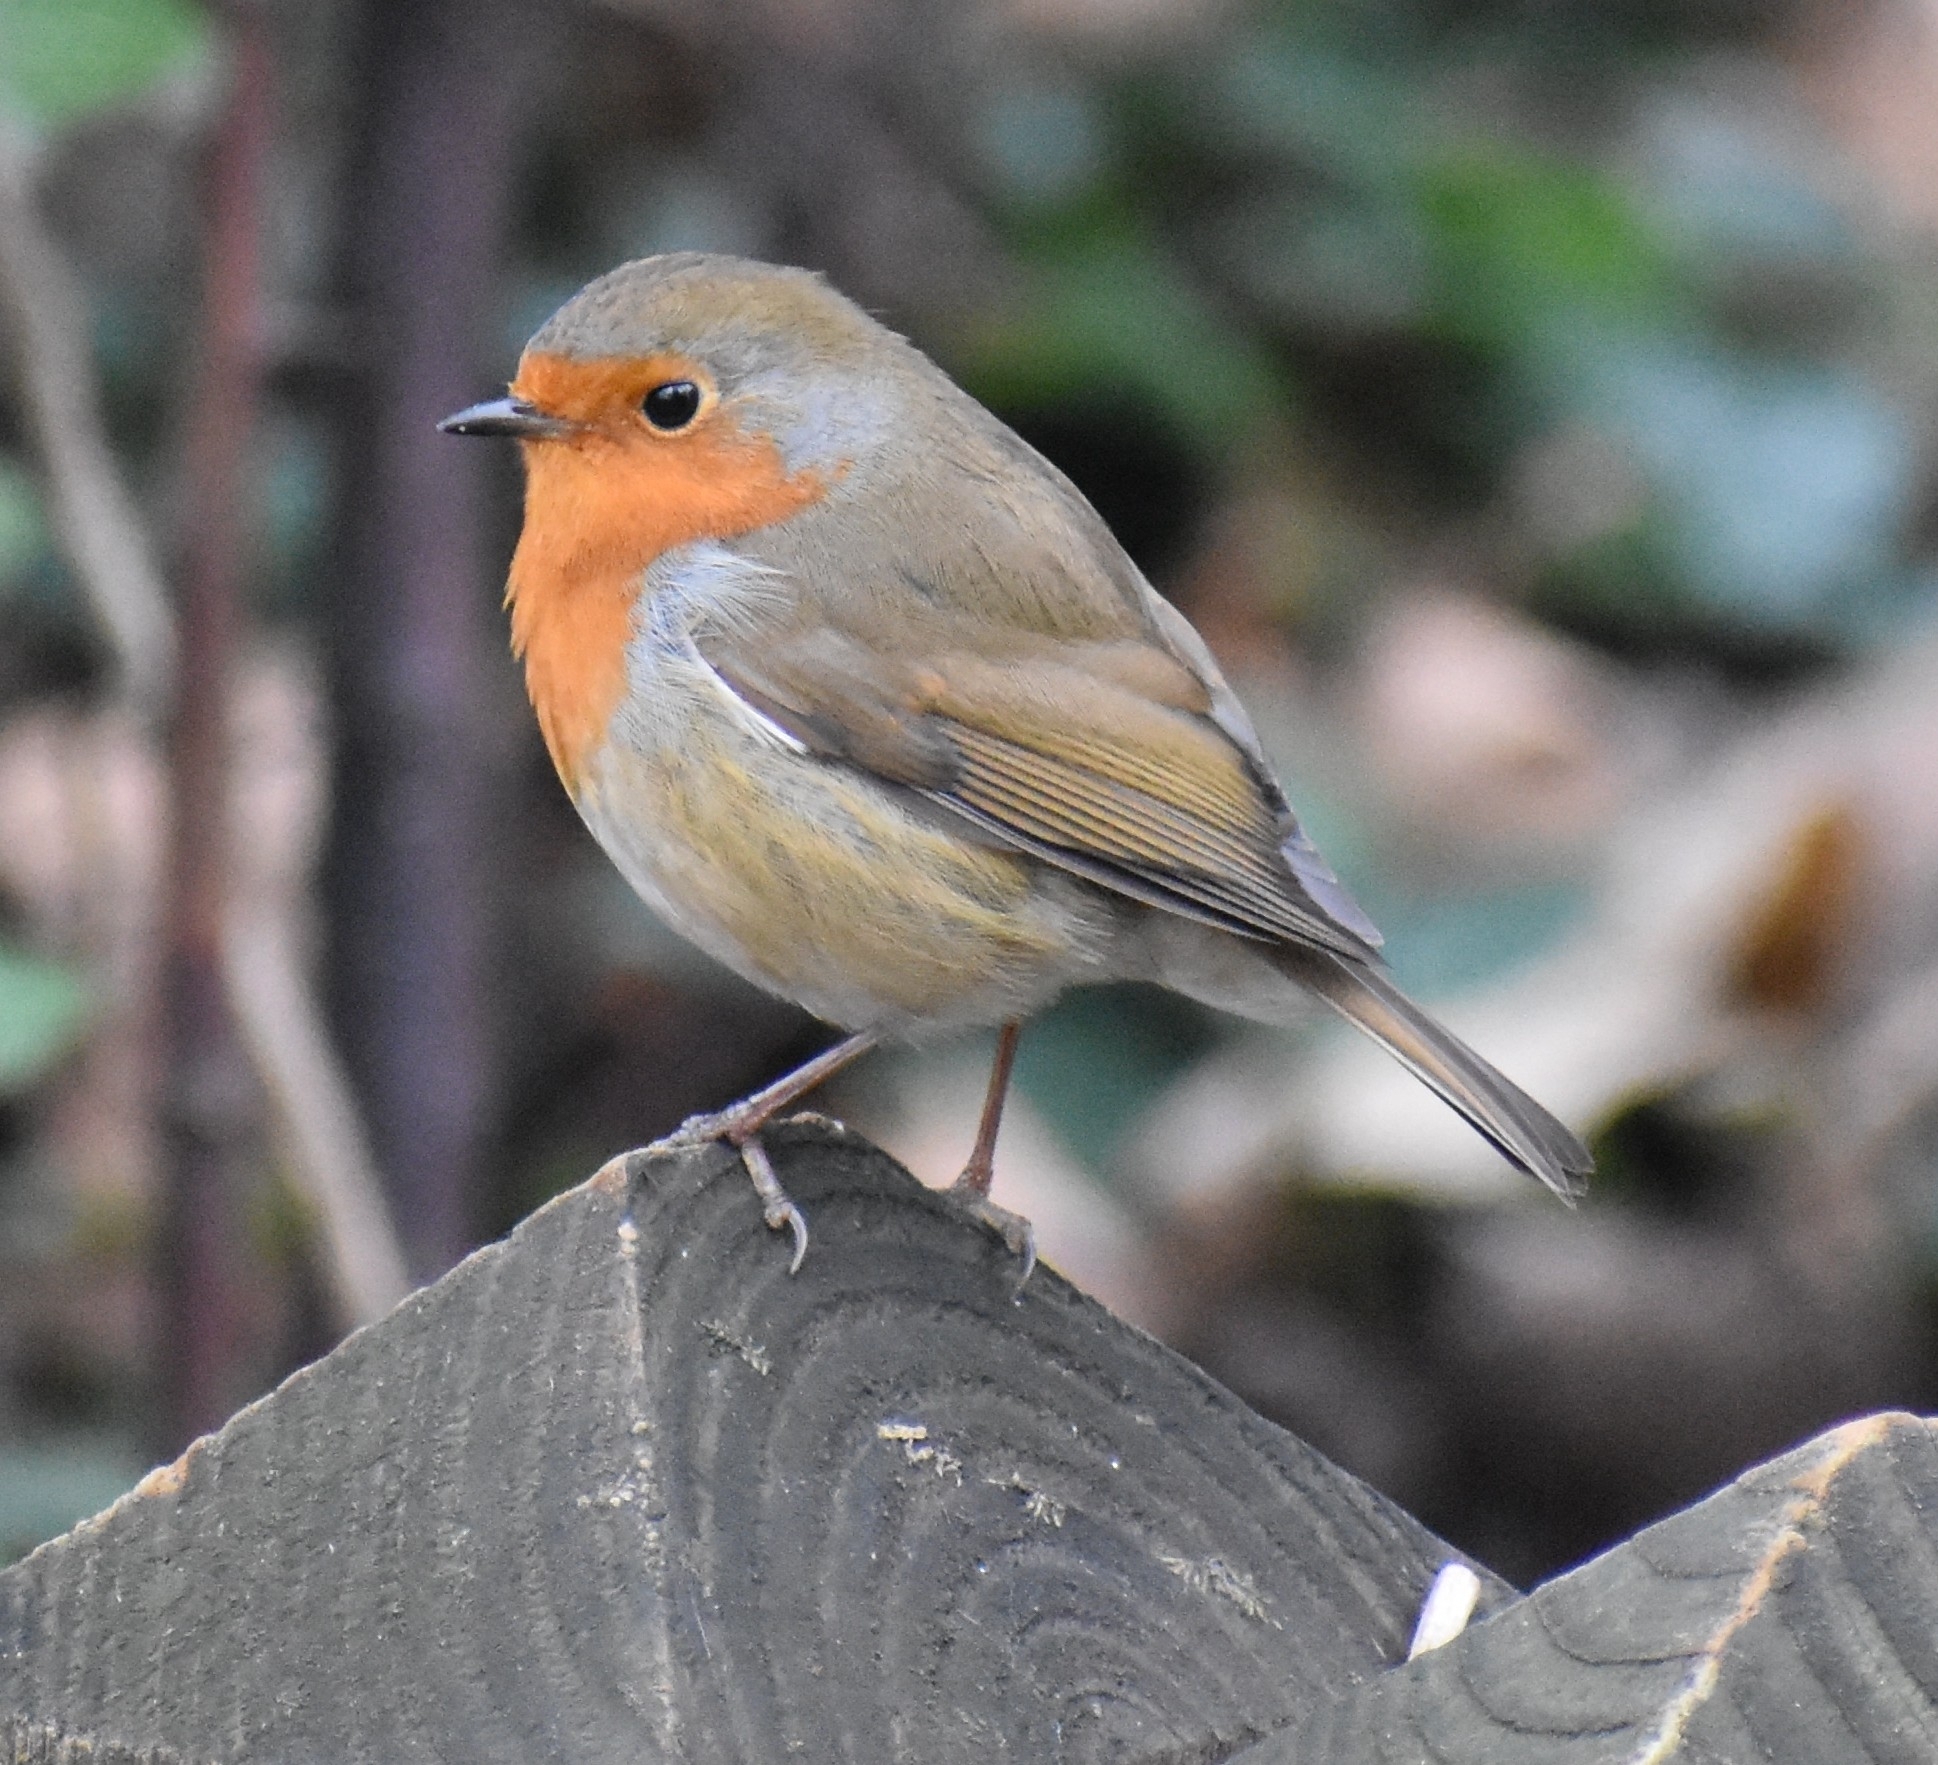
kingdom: Animalia
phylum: Chordata
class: Aves
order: Passeriformes
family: Muscicapidae
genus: Erithacus
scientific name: Erithacus rubecula
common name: European robin
